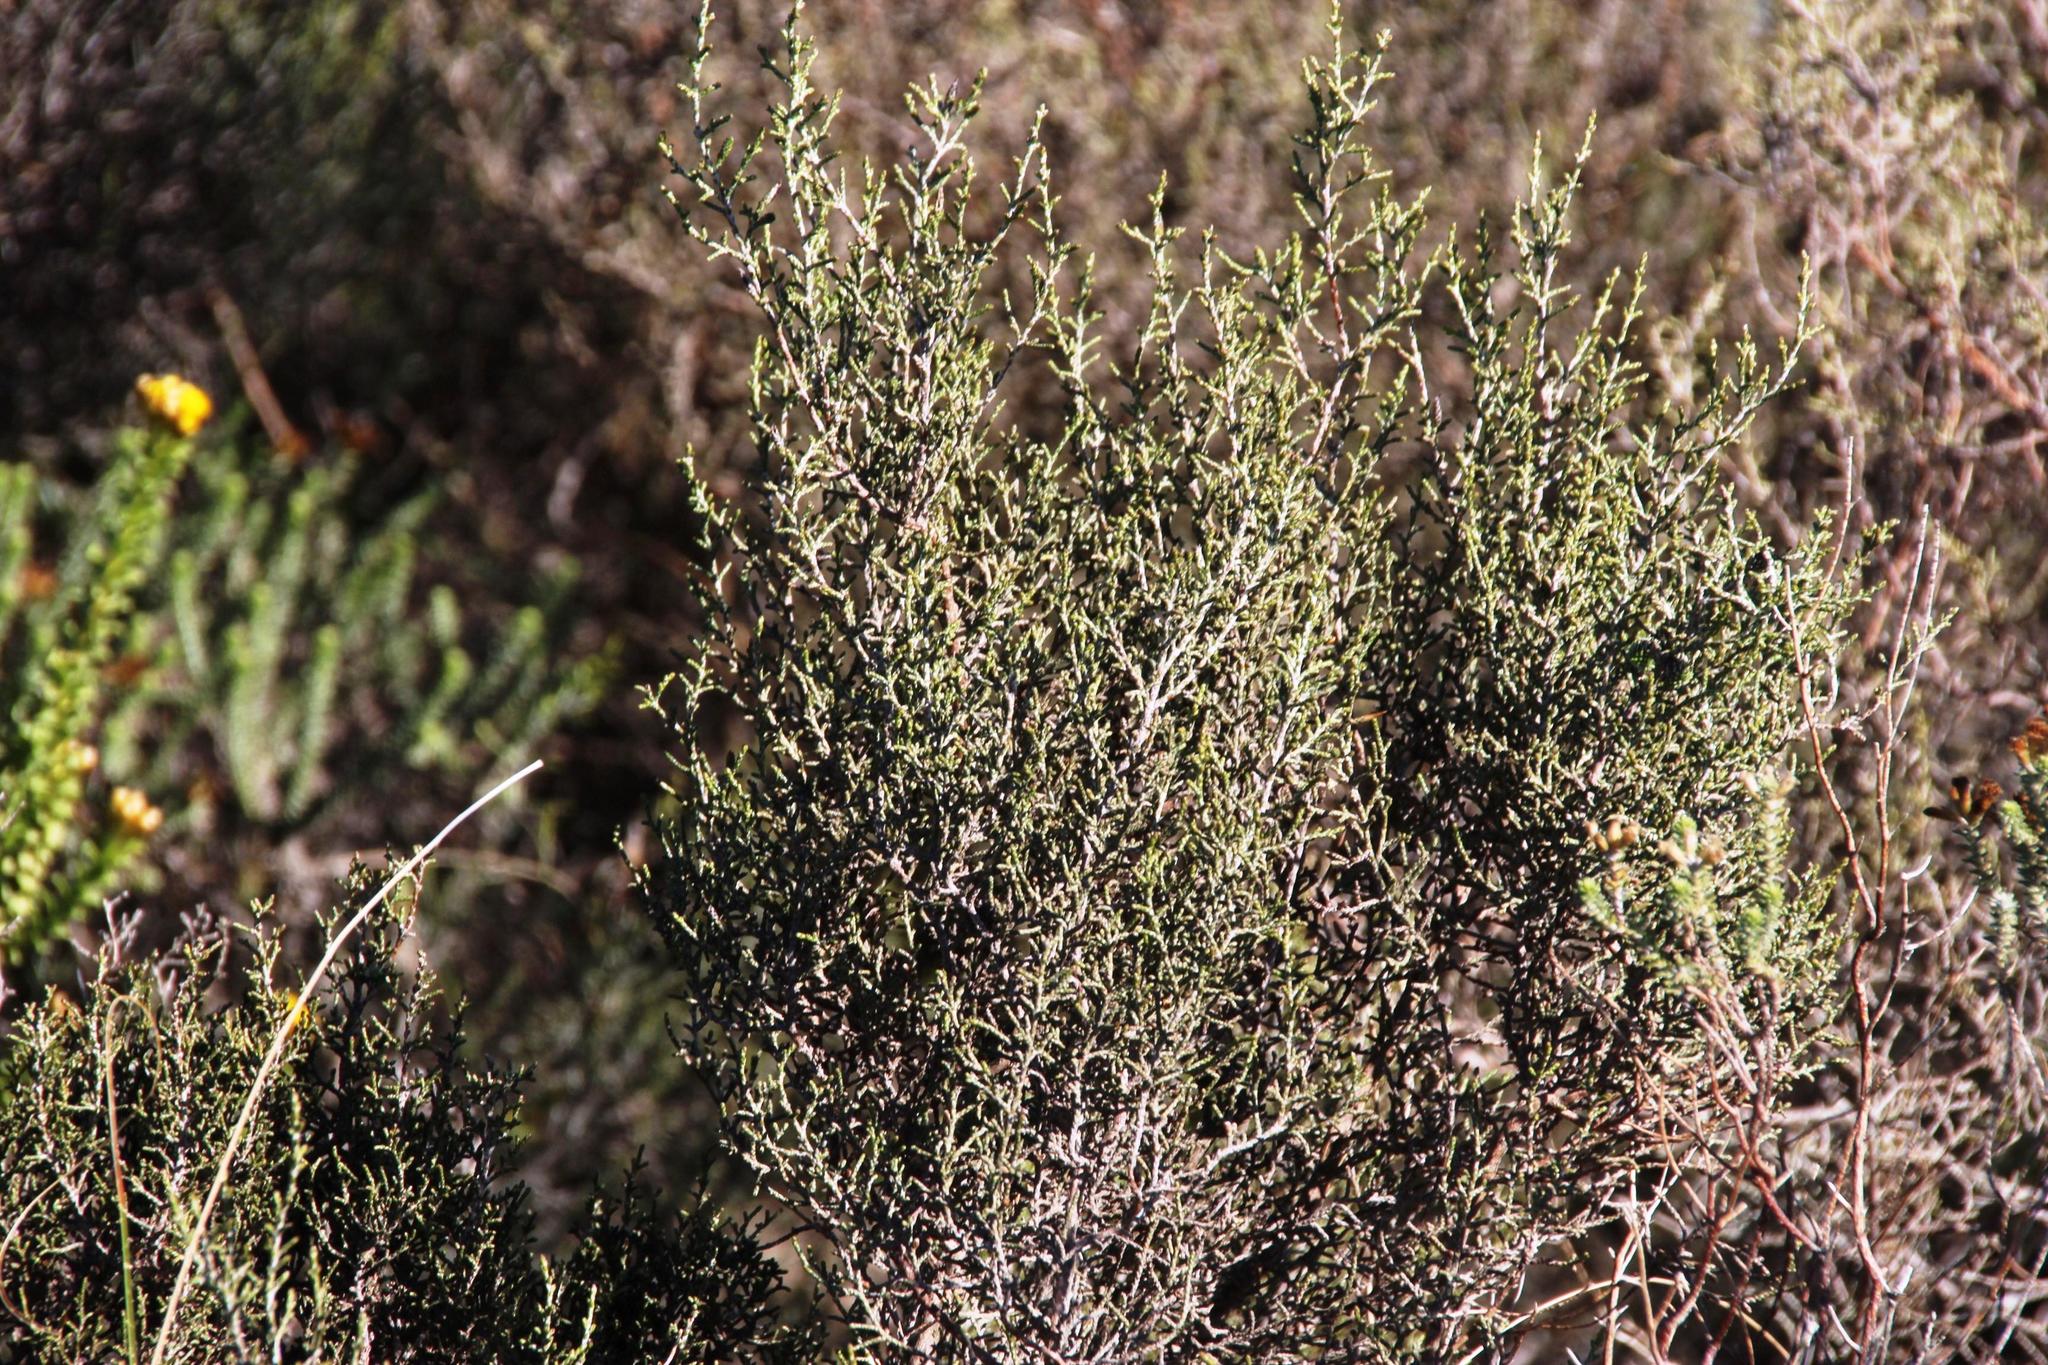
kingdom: Plantae
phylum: Tracheophyta
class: Magnoliopsida
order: Asterales
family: Asteraceae
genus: Dicerothamnus
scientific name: Dicerothamnus rhinocerotis
